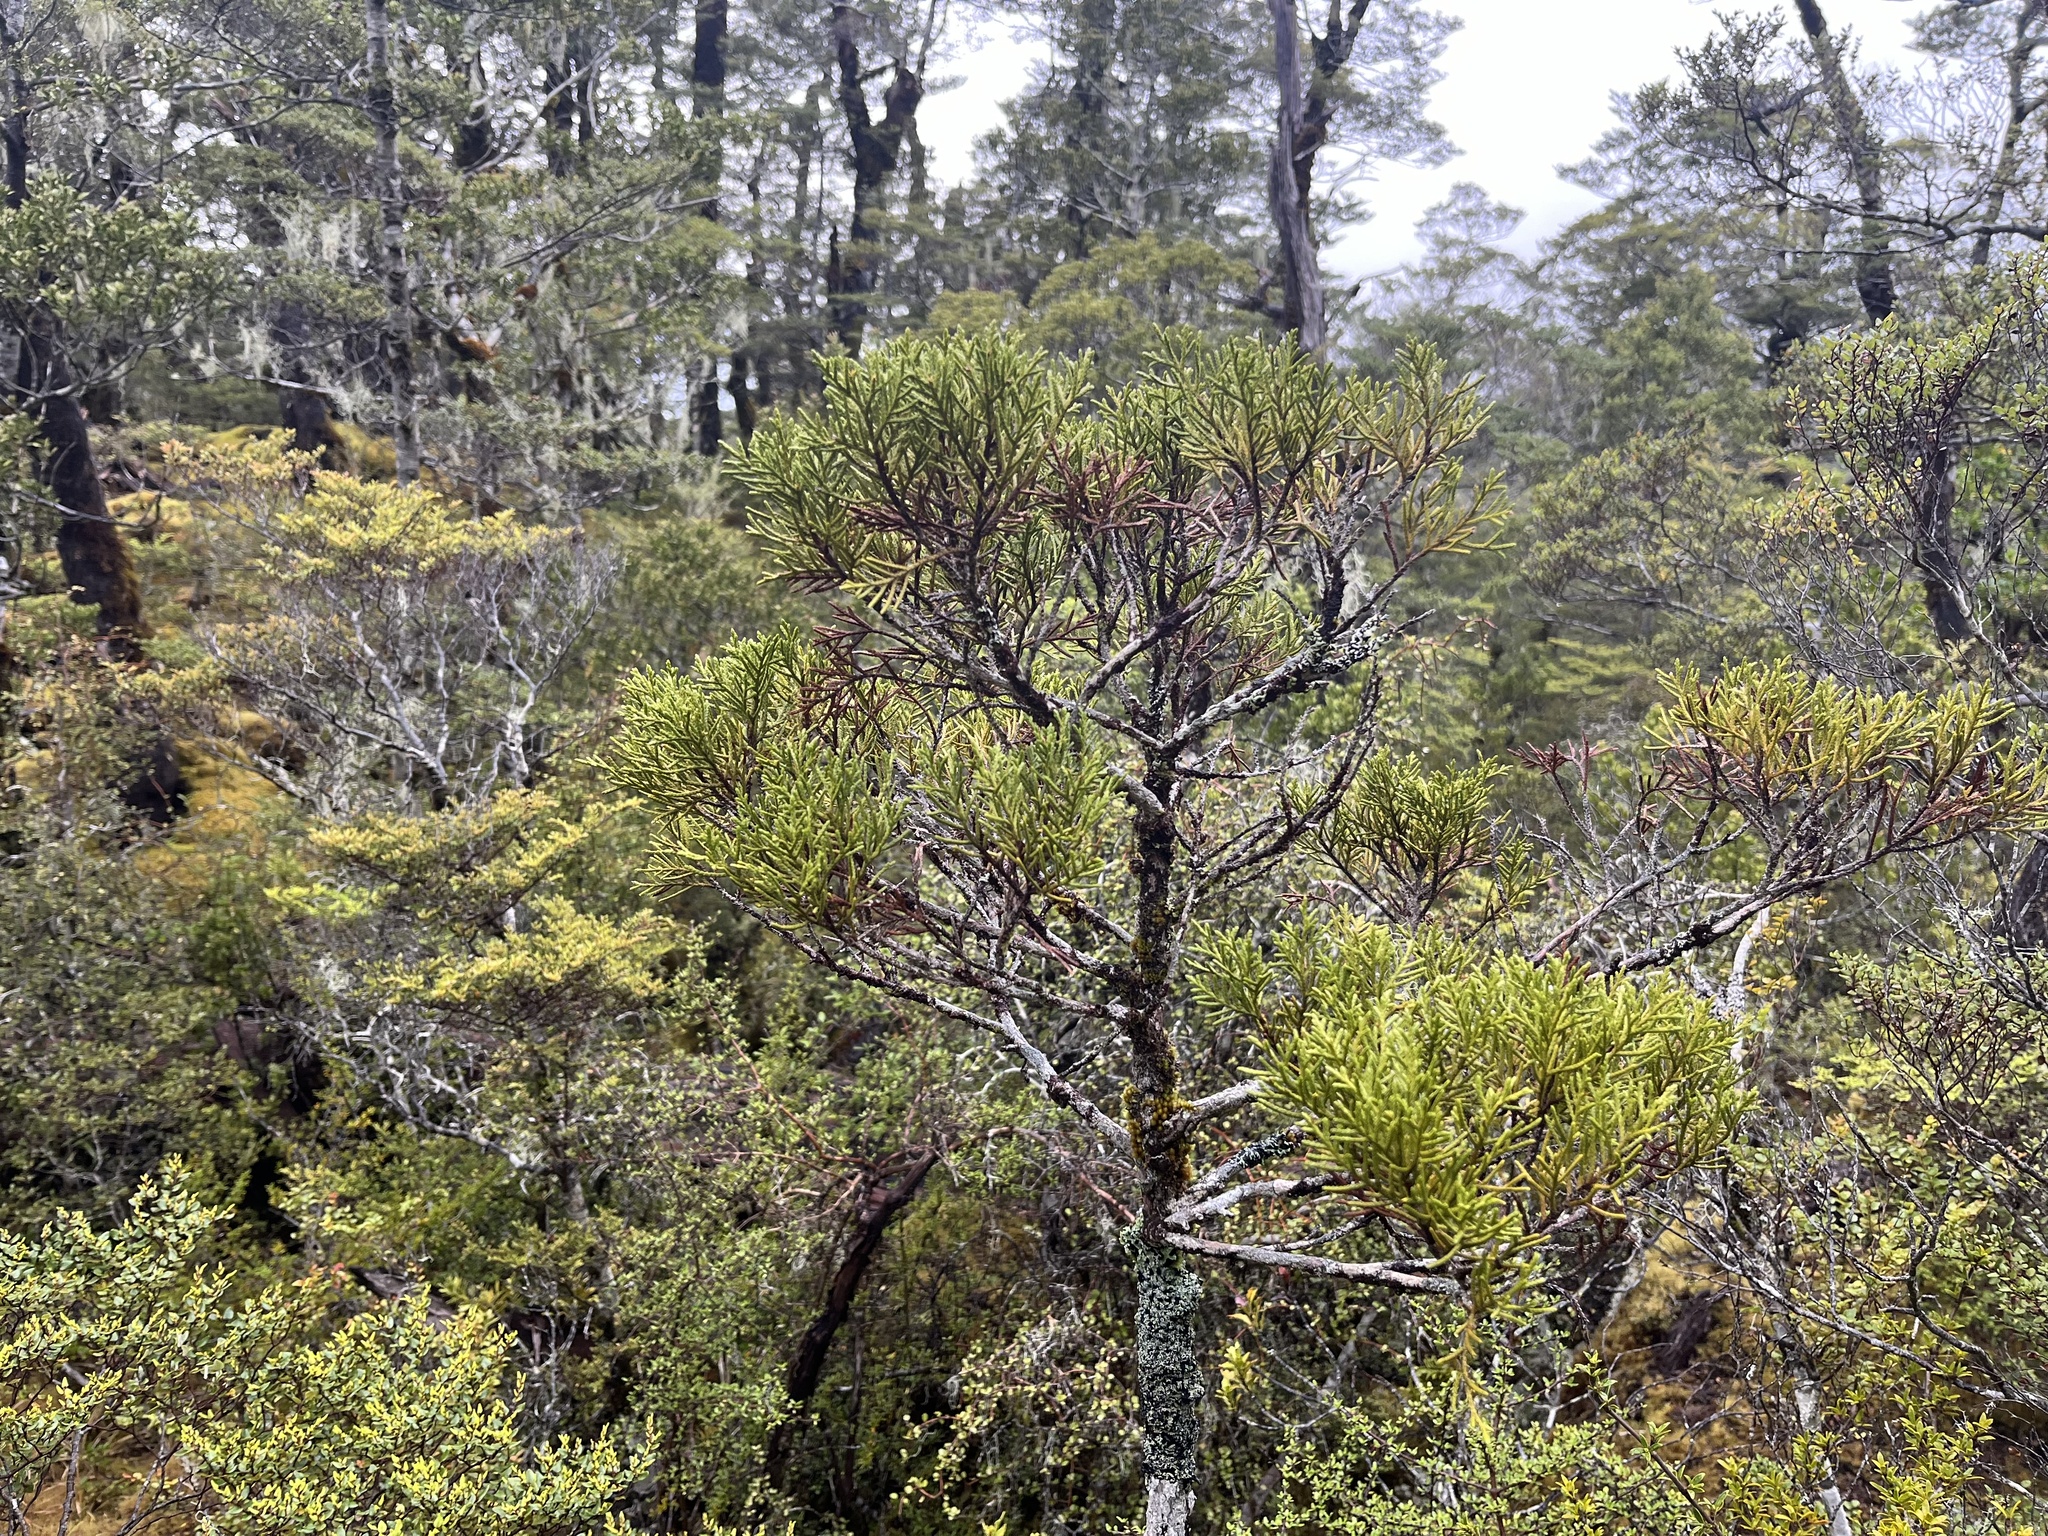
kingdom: Plantae
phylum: Tracheophyta
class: Pinopsida
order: Pinales
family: Cupressaceae
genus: Libocedrus
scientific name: Libocedrus bidwillii
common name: Cedar
